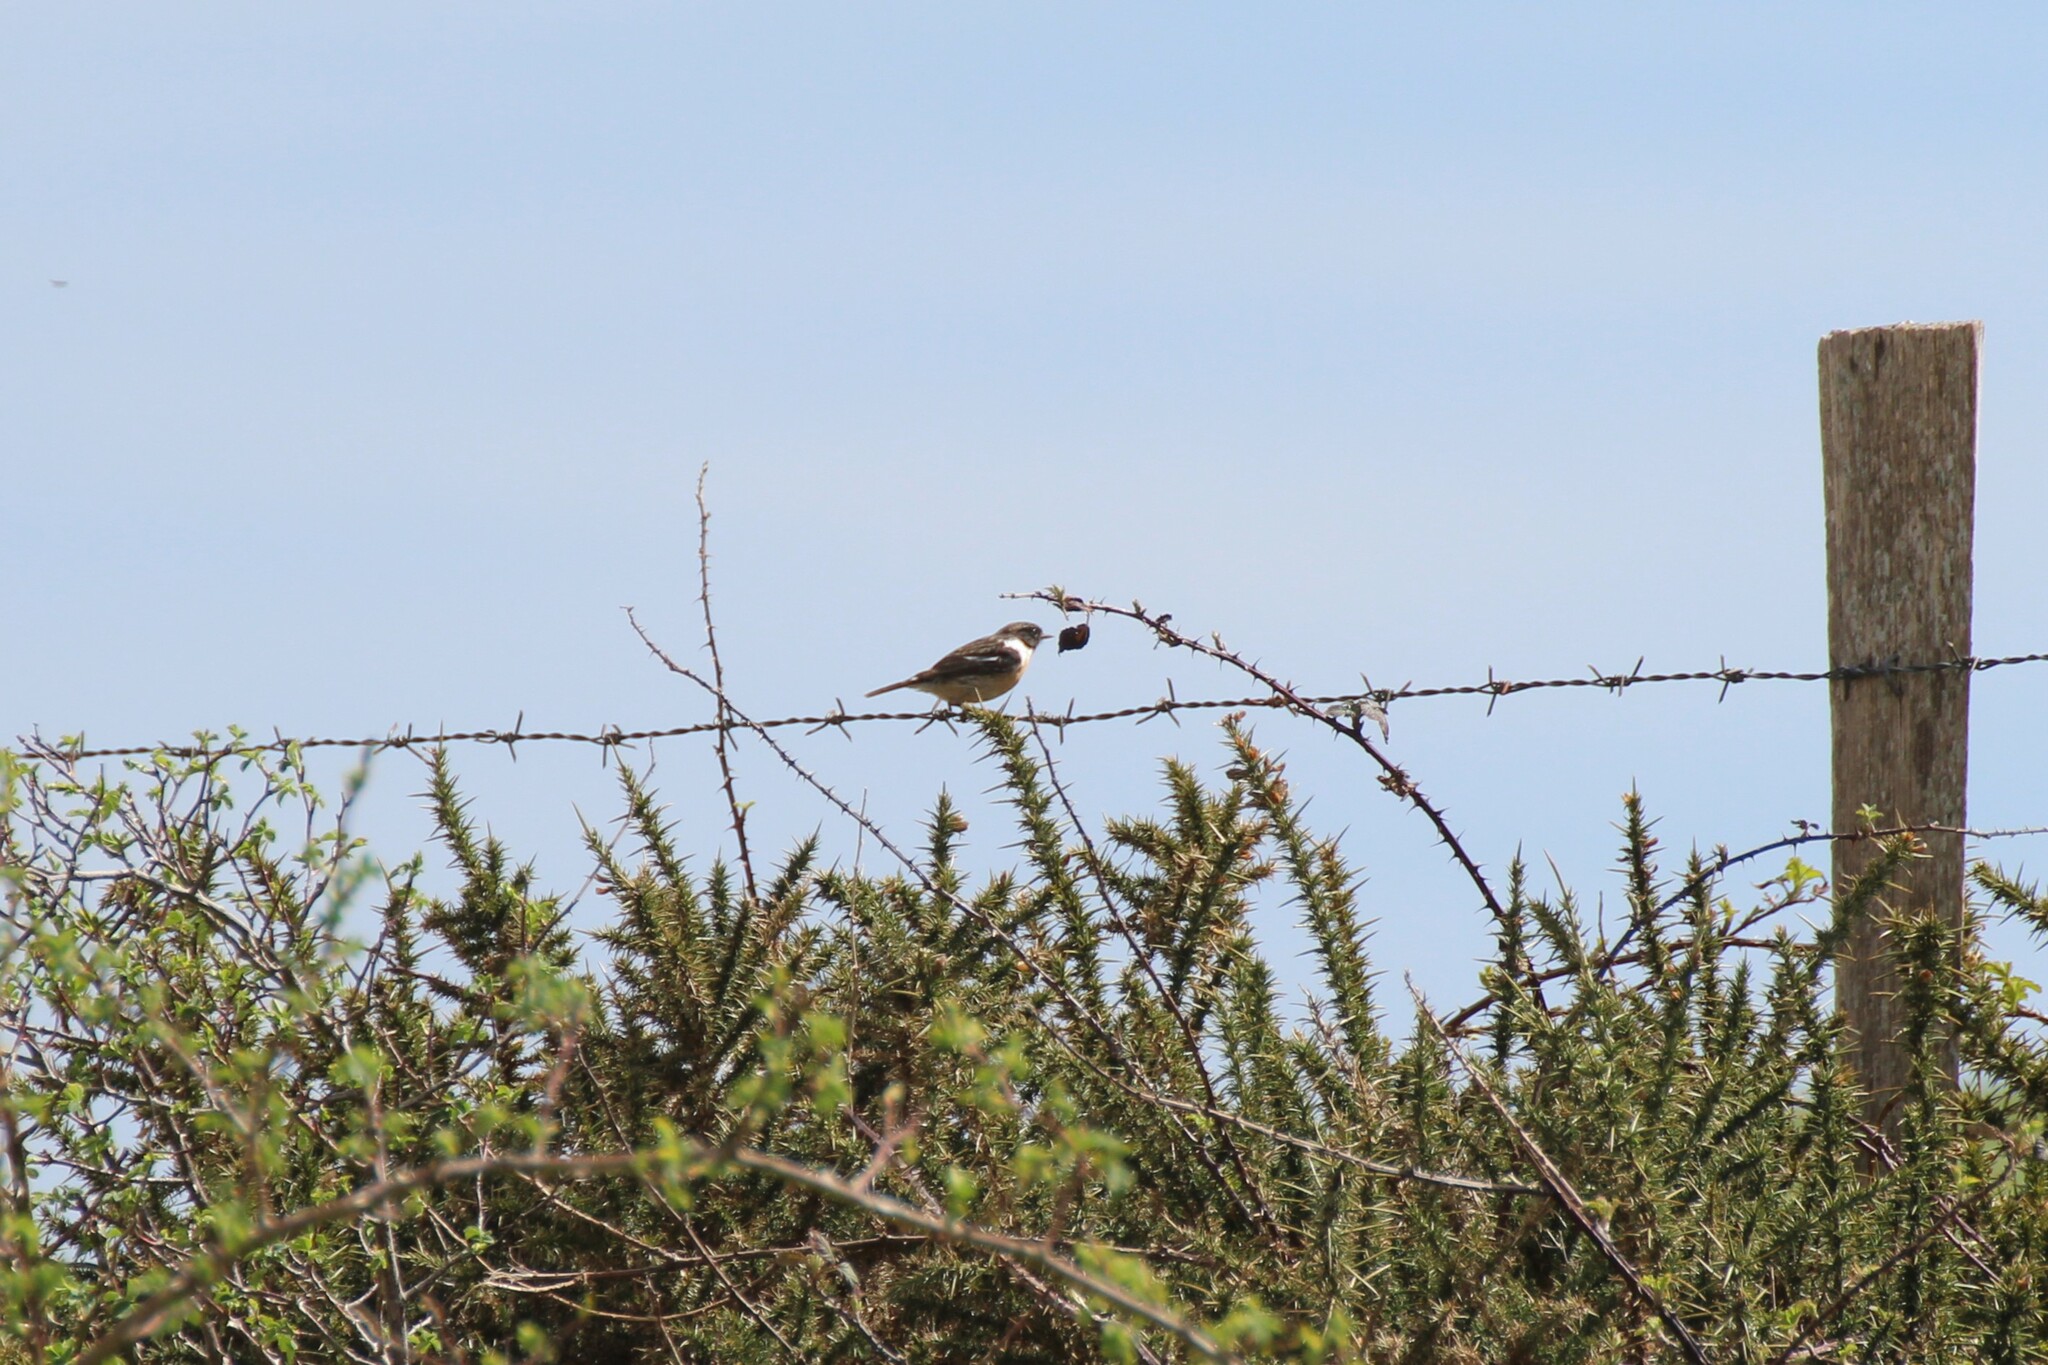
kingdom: Animalia
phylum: Chordata
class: Aves
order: Passeriformes
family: Muscicapidae
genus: Saxicola
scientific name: Saxicola rubicola
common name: European stonechat
